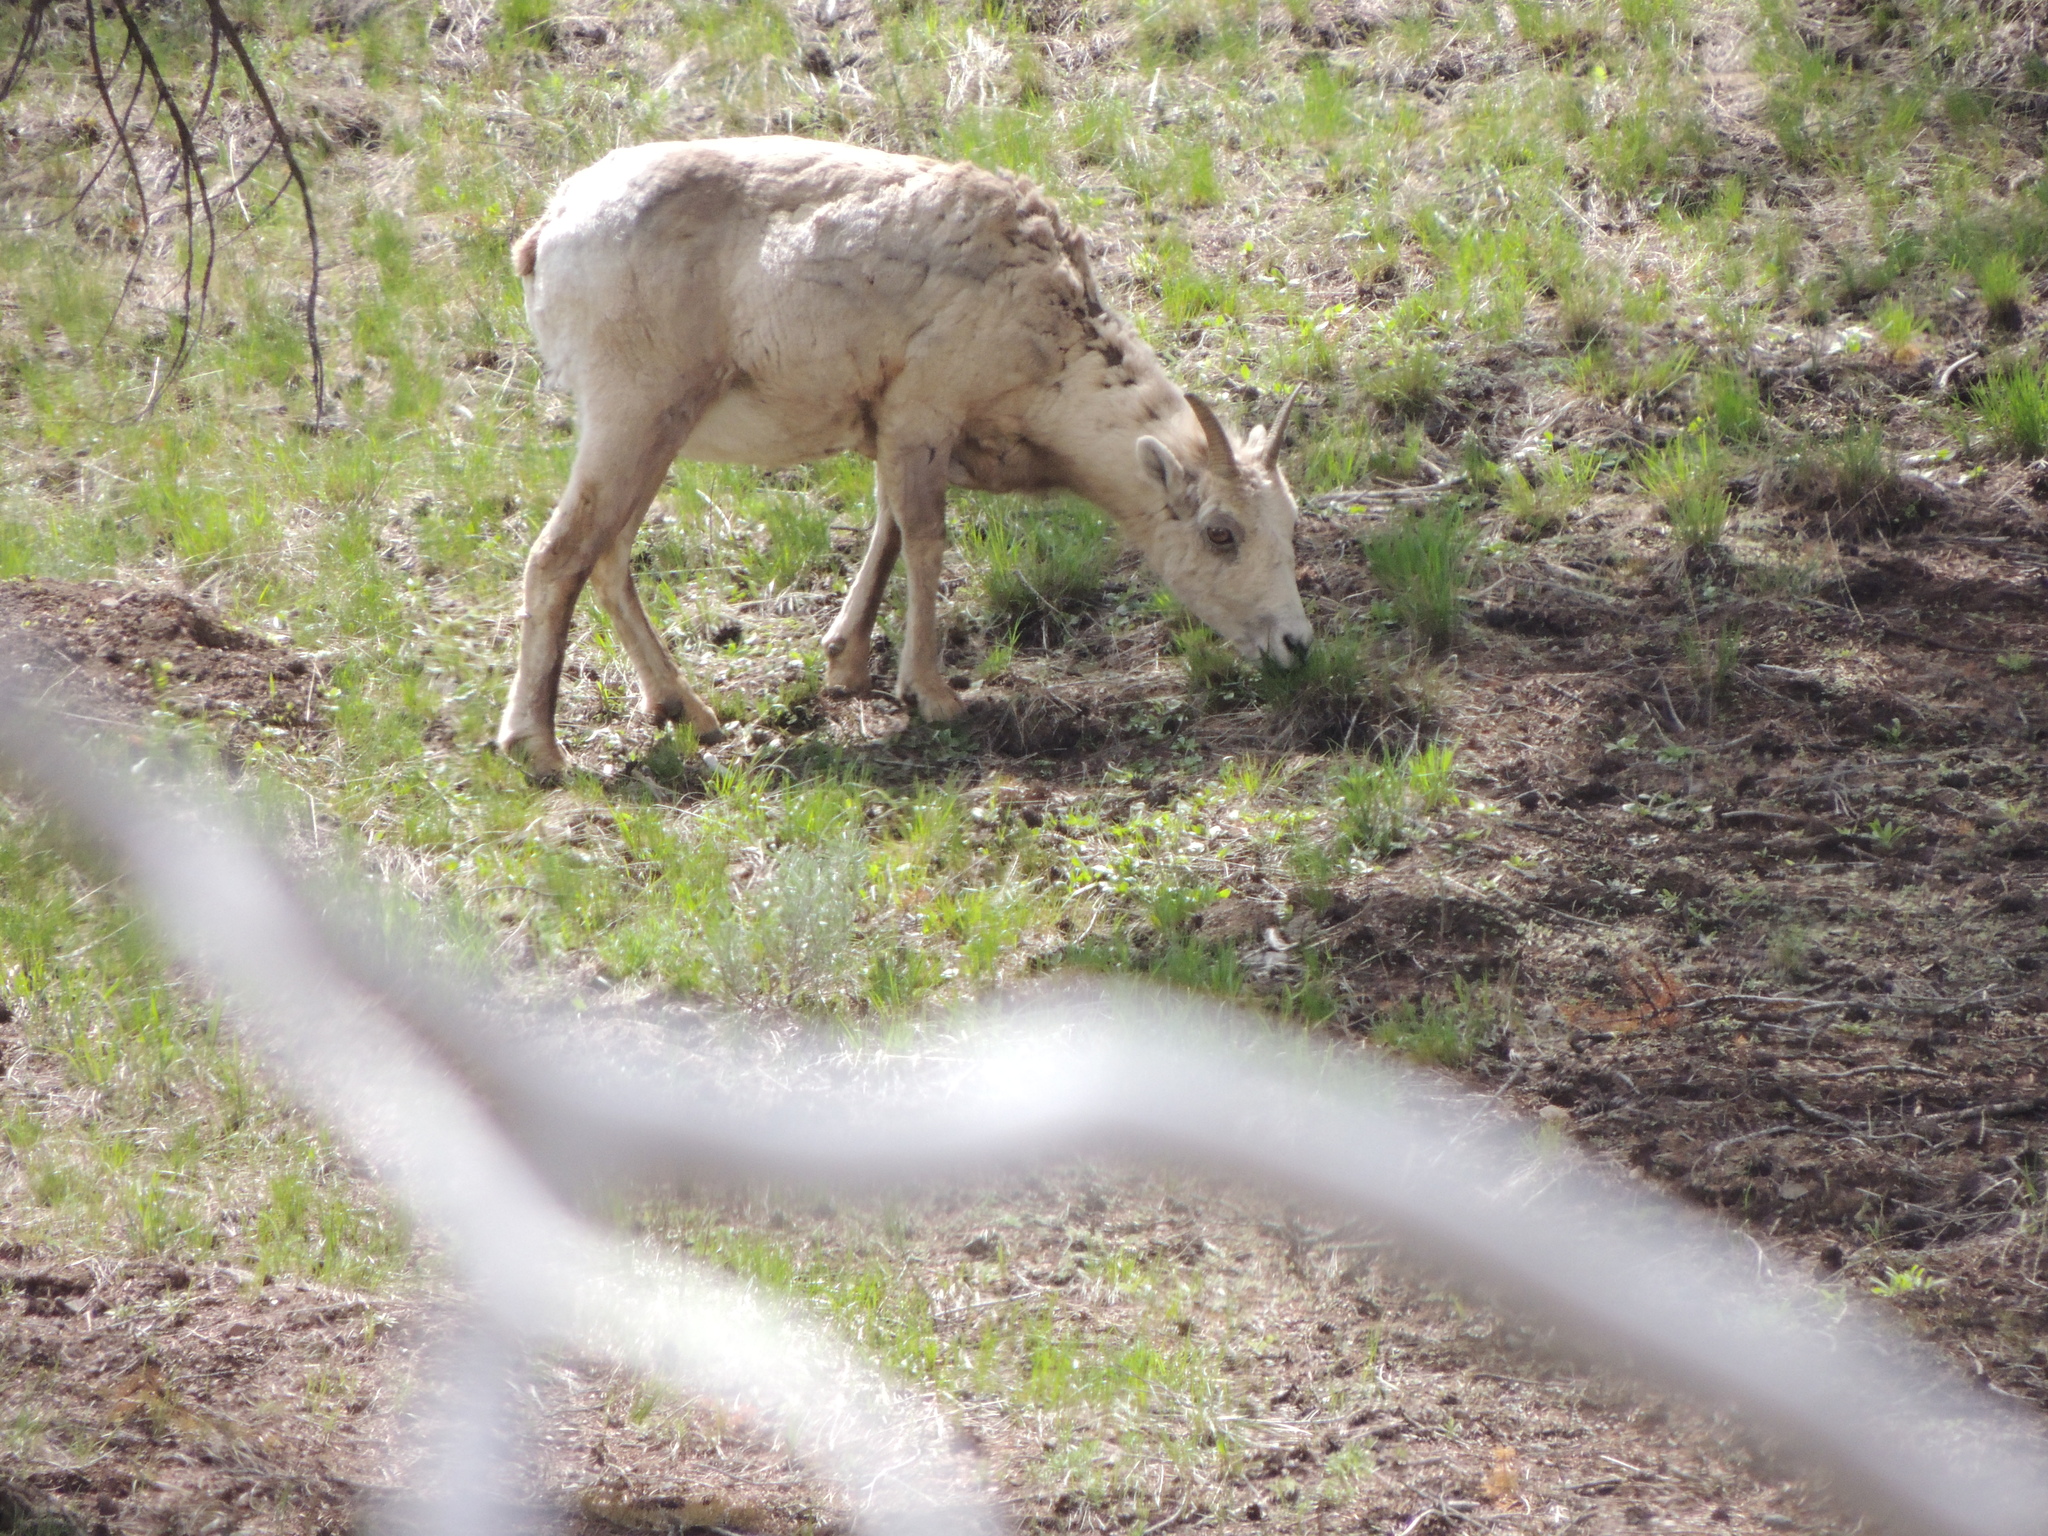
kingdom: Animalia
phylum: Chordata
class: Mammalia
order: Artiodactyla
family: Bovidae
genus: Ovis
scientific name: Ovis canadensis
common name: Bighorn sheep
